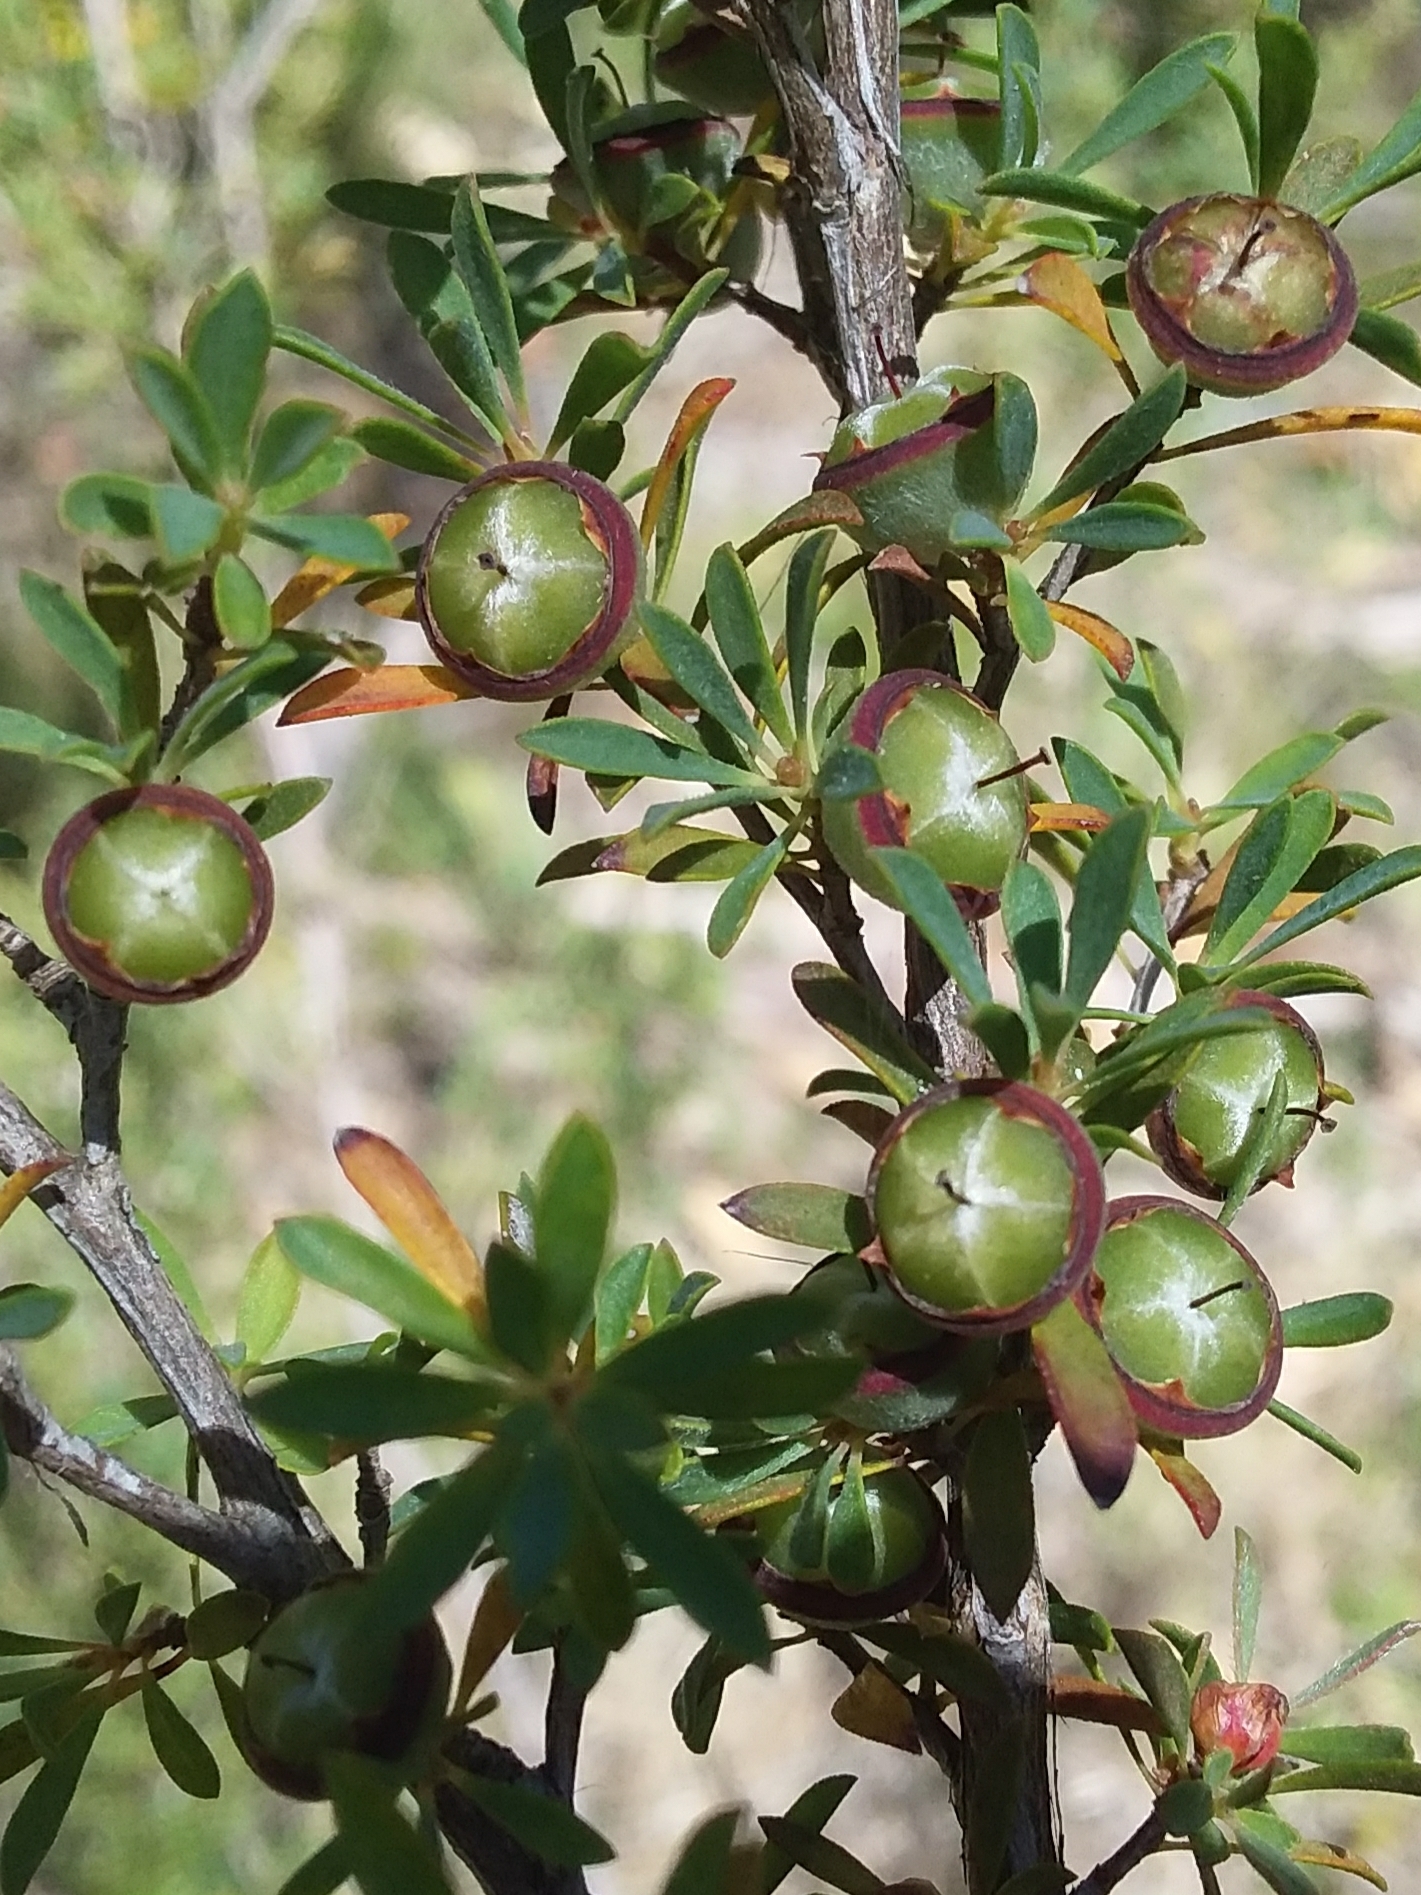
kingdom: Plantae
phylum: Tracheophyta
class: Magnoliopsida
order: Myrtales
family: Myrtaceae
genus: Leptospermum
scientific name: Leptospermum myrsinoides
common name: Heath teatree
